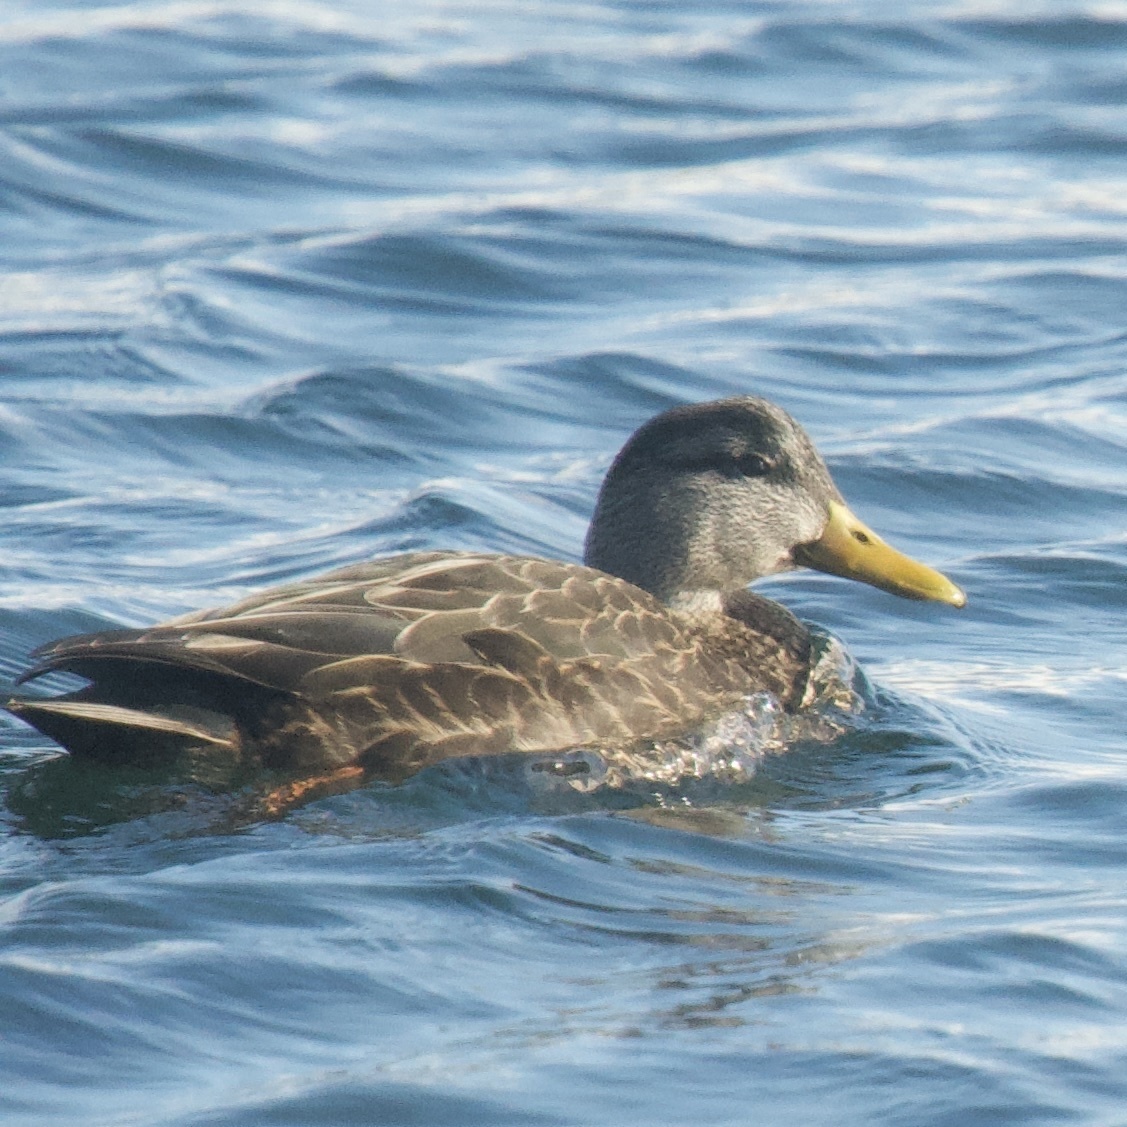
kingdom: Animalia
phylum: Chordata
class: Aves
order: Anseriformes
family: Anatidae
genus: Anas
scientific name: Anas rubripes
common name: American black duck
